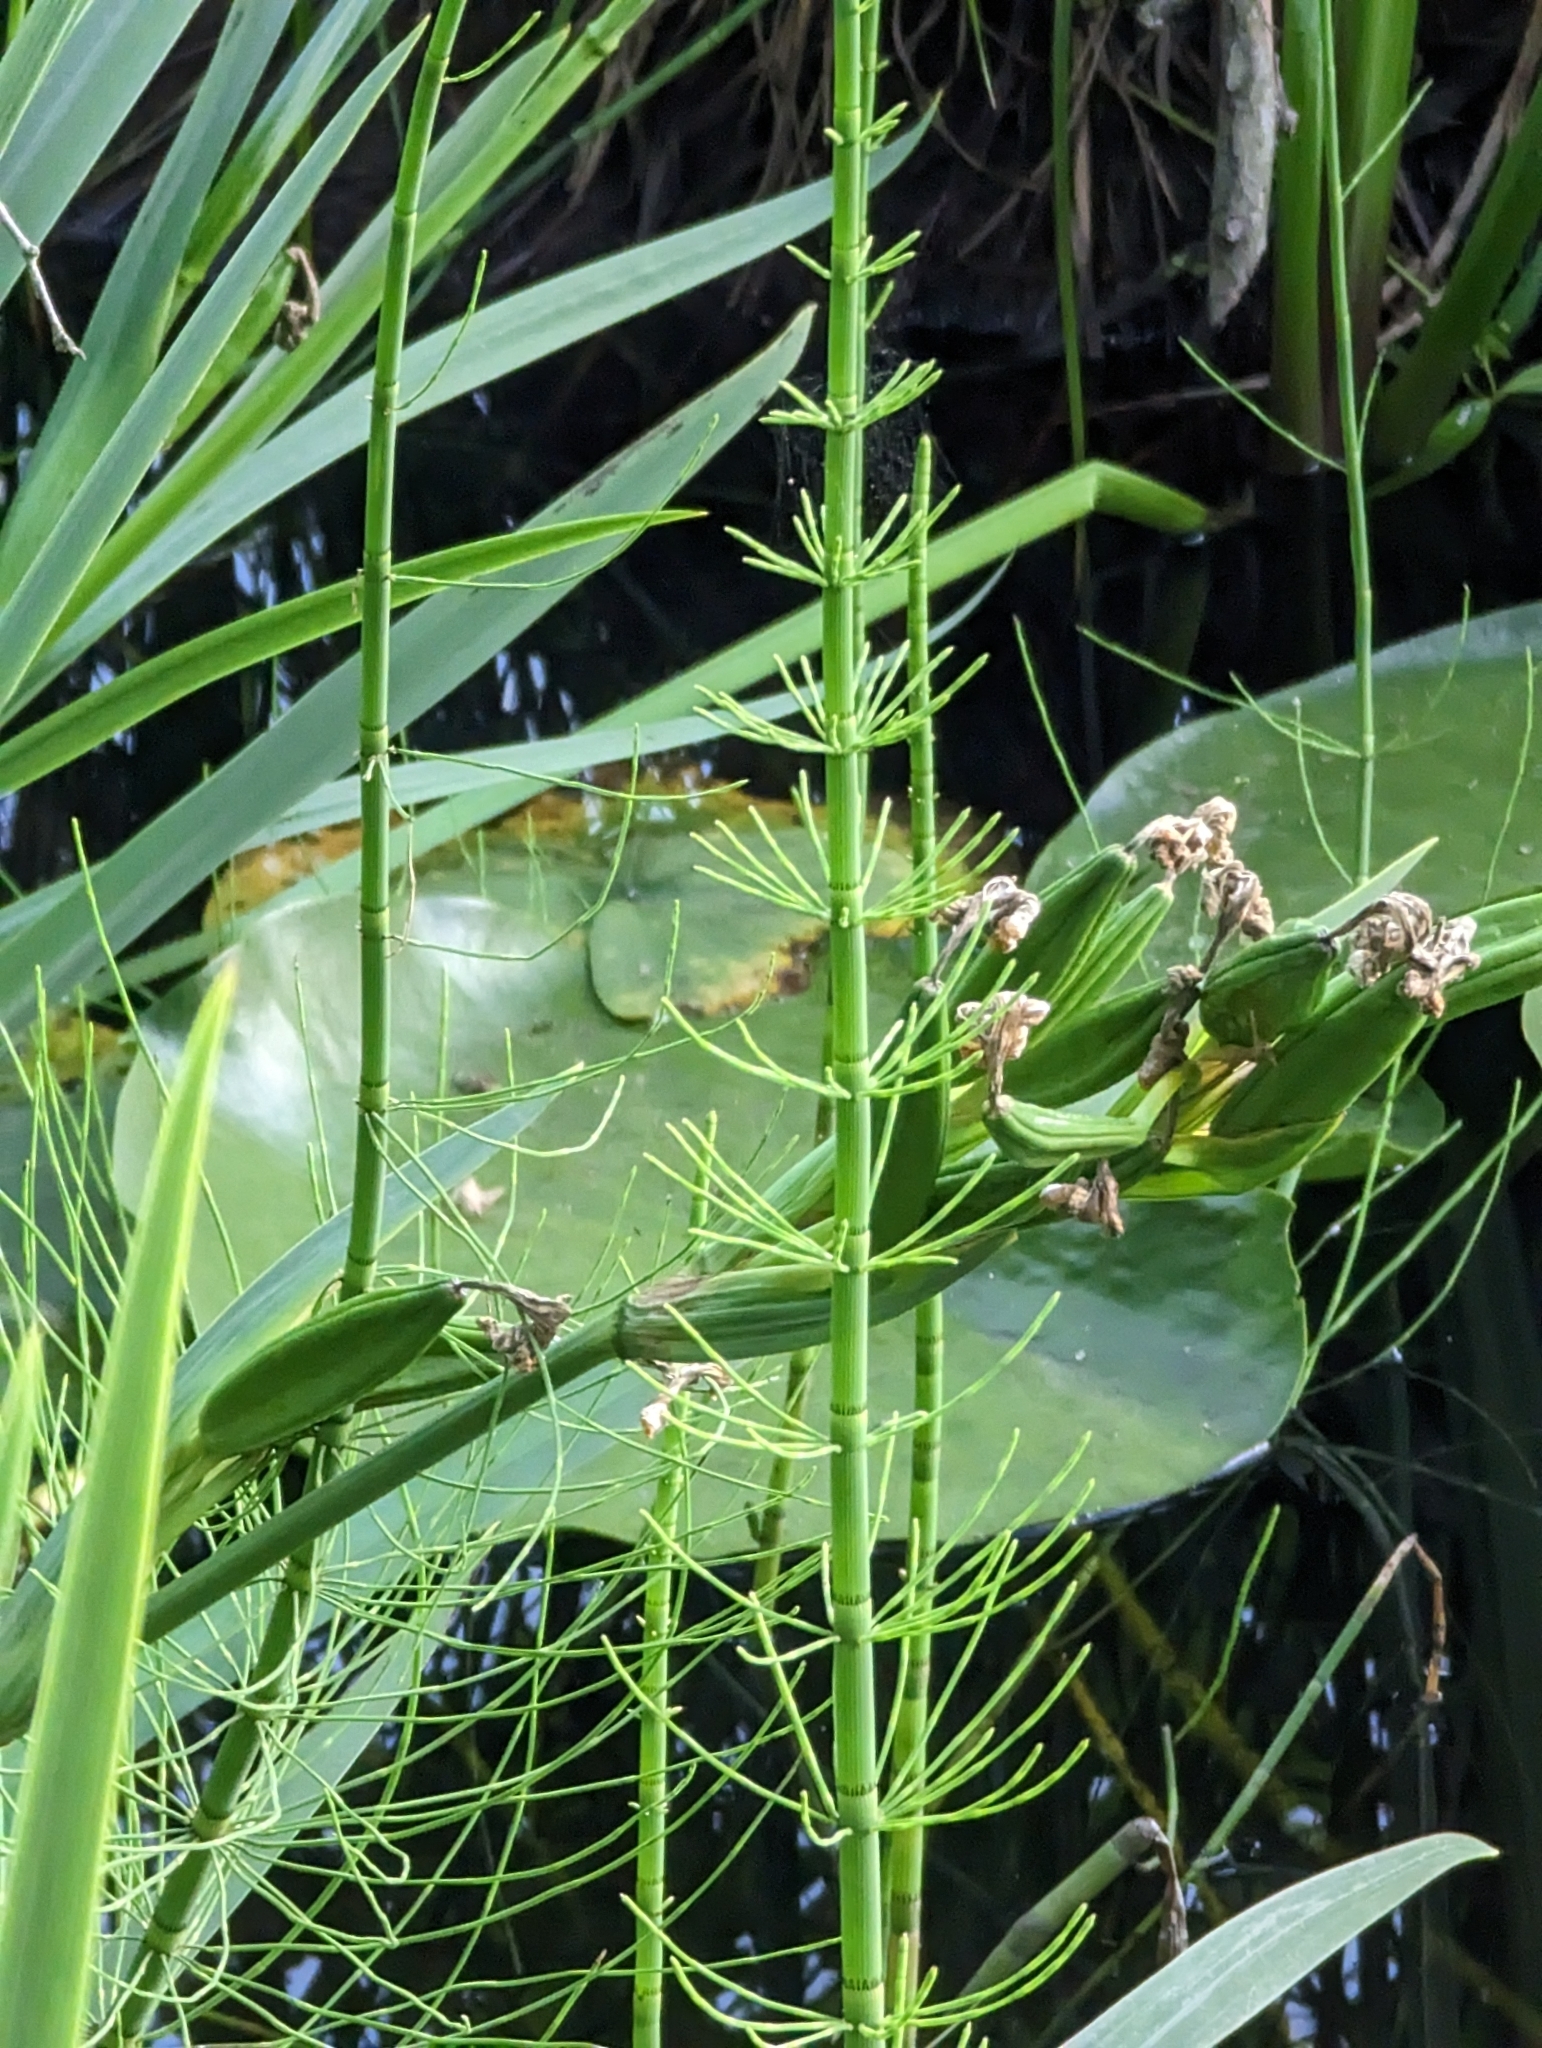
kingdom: Plantae
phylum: Tracheophyta
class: Polypodiopsida
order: Equisetales
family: Equisetaceae
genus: Equisetum
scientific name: Equisetum fluviatile
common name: Water horsetail
